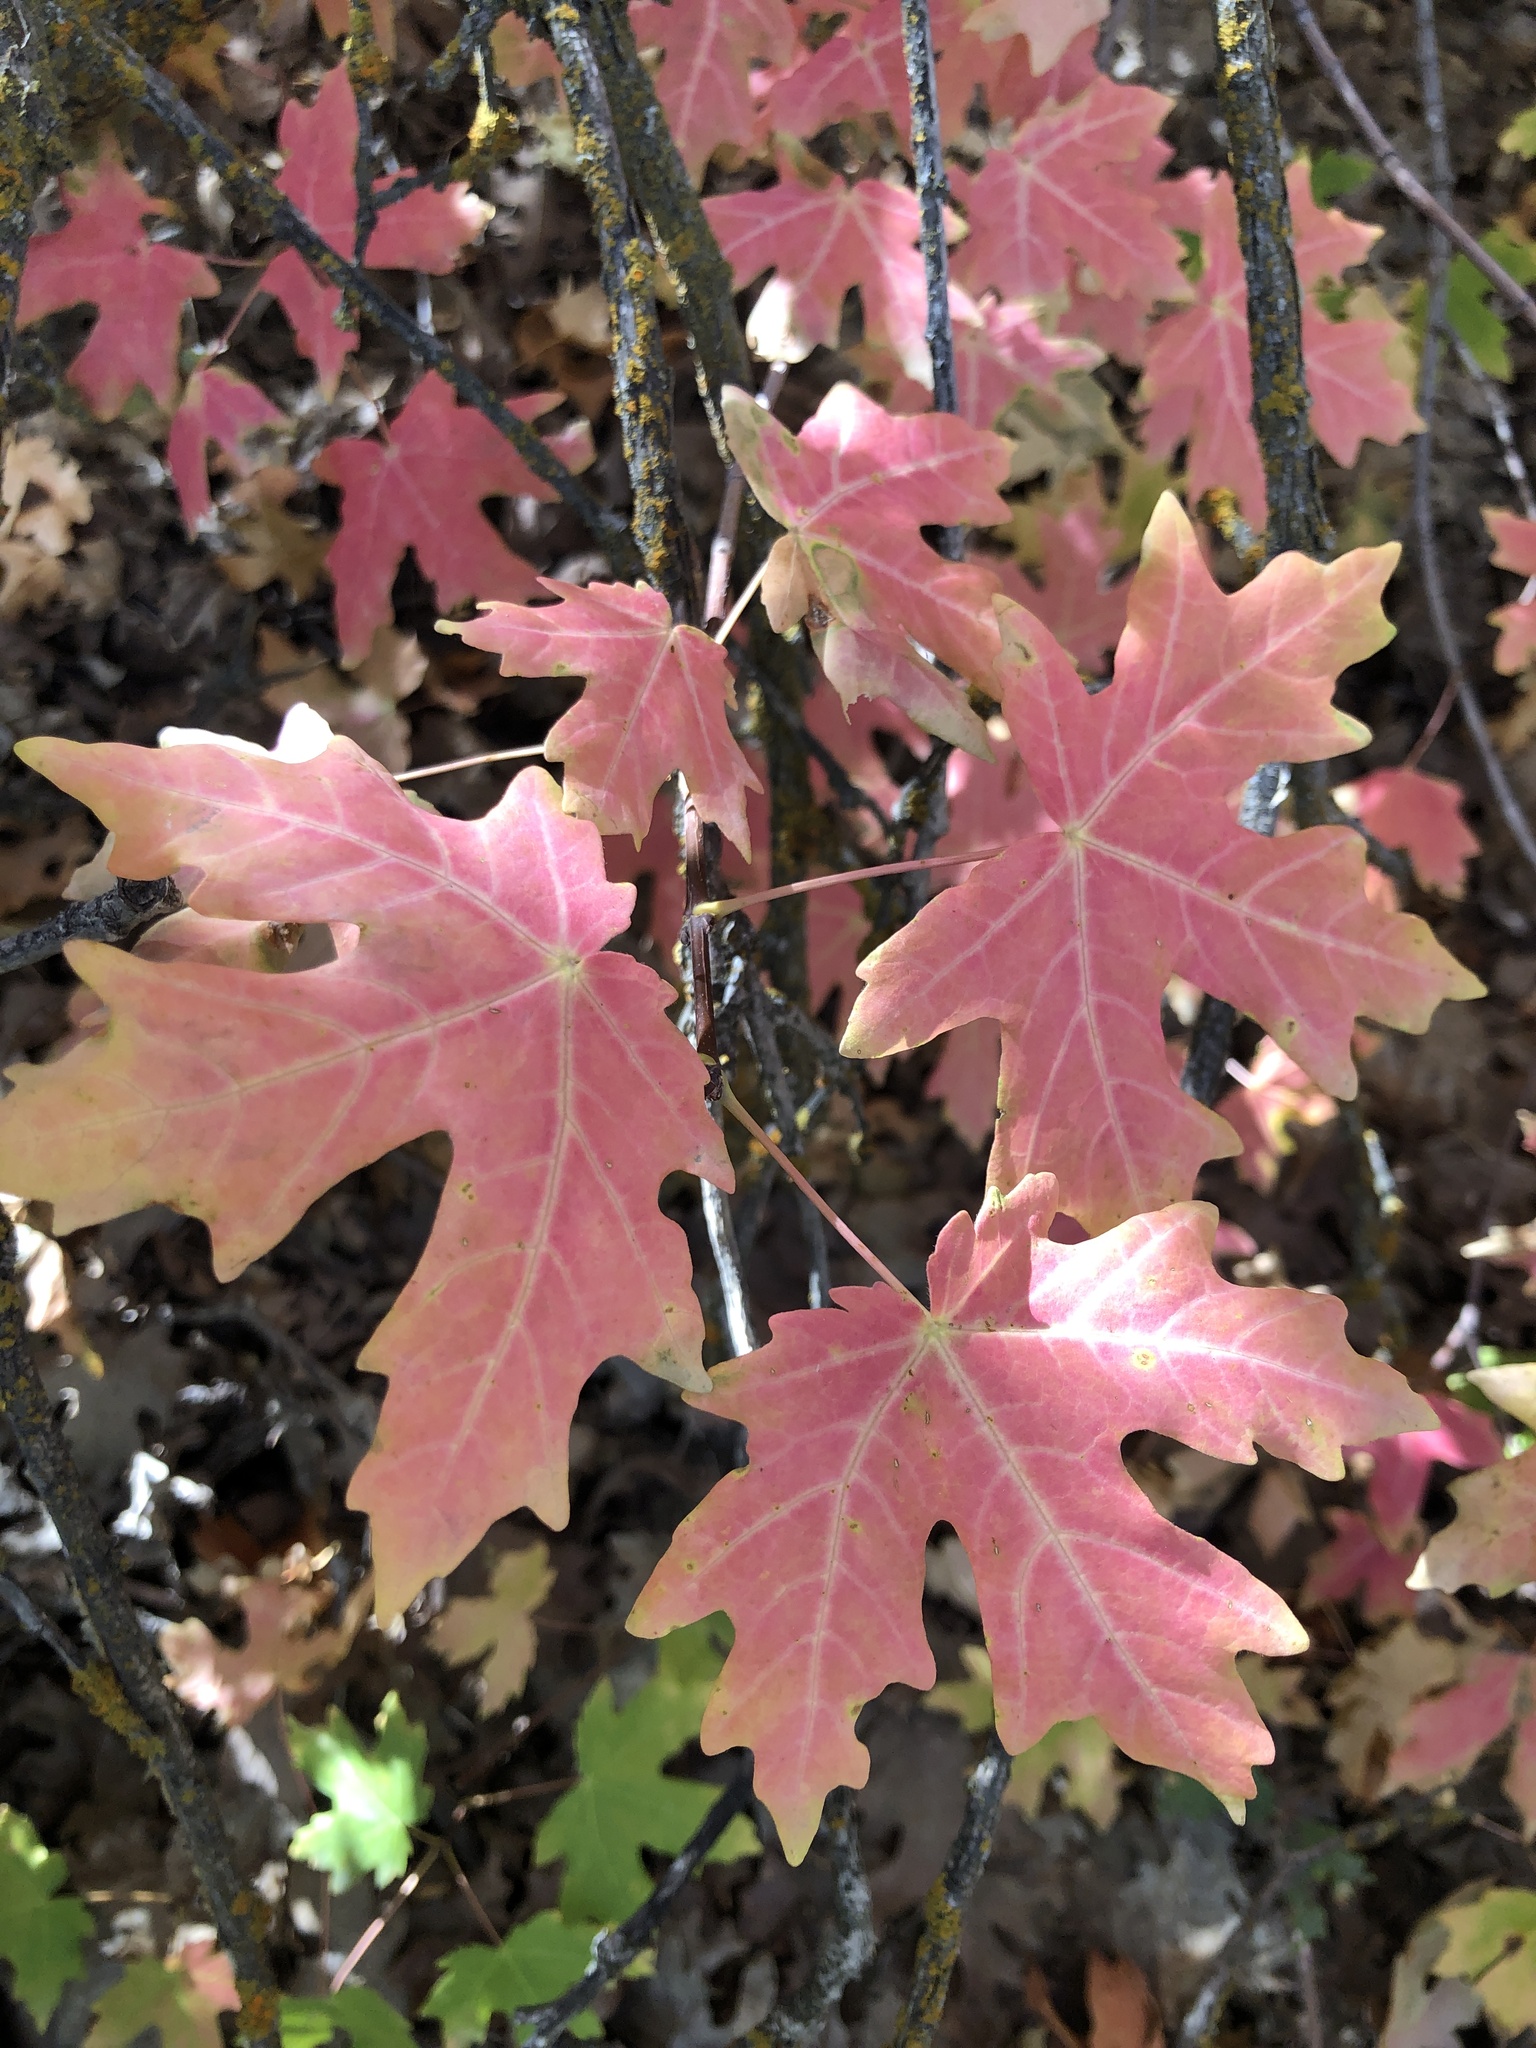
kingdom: Plantae
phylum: Tracheophyta
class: Magnoliopsida
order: Sapindales
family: Sapindaceae
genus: Acer
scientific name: Acer grandidentatum
